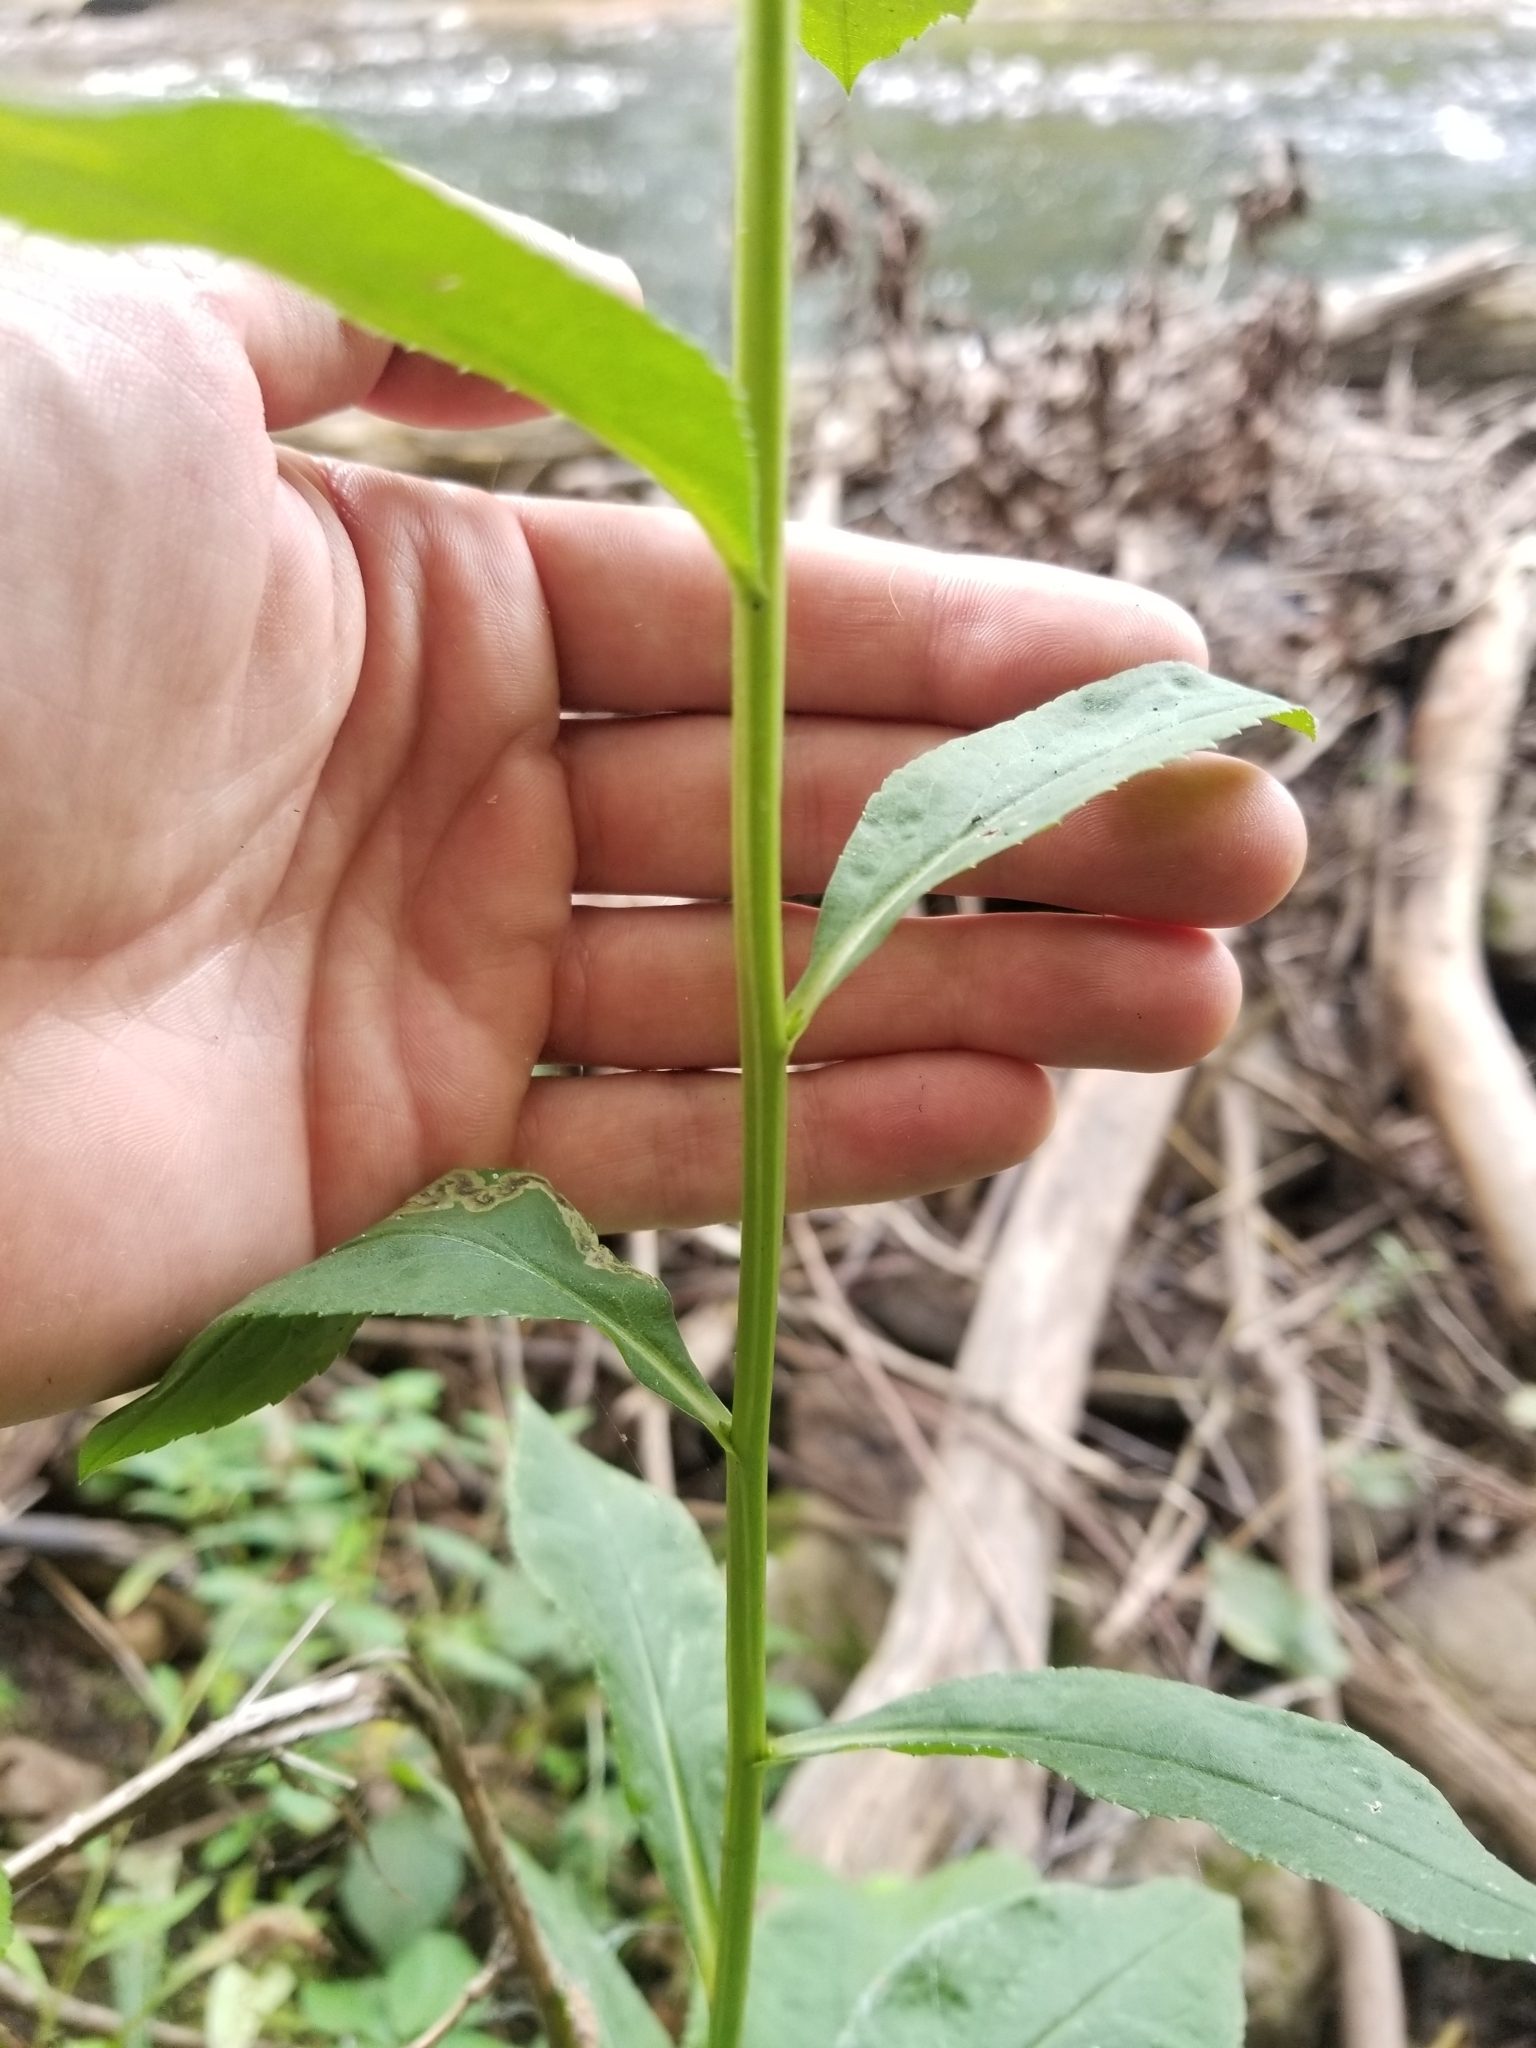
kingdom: Plantae
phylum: Tracheophyta
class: Magnoliopsida
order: Asterales
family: Asteraceae
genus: Solidago
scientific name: Solidago patula
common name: Rough-leaf goldenrod
